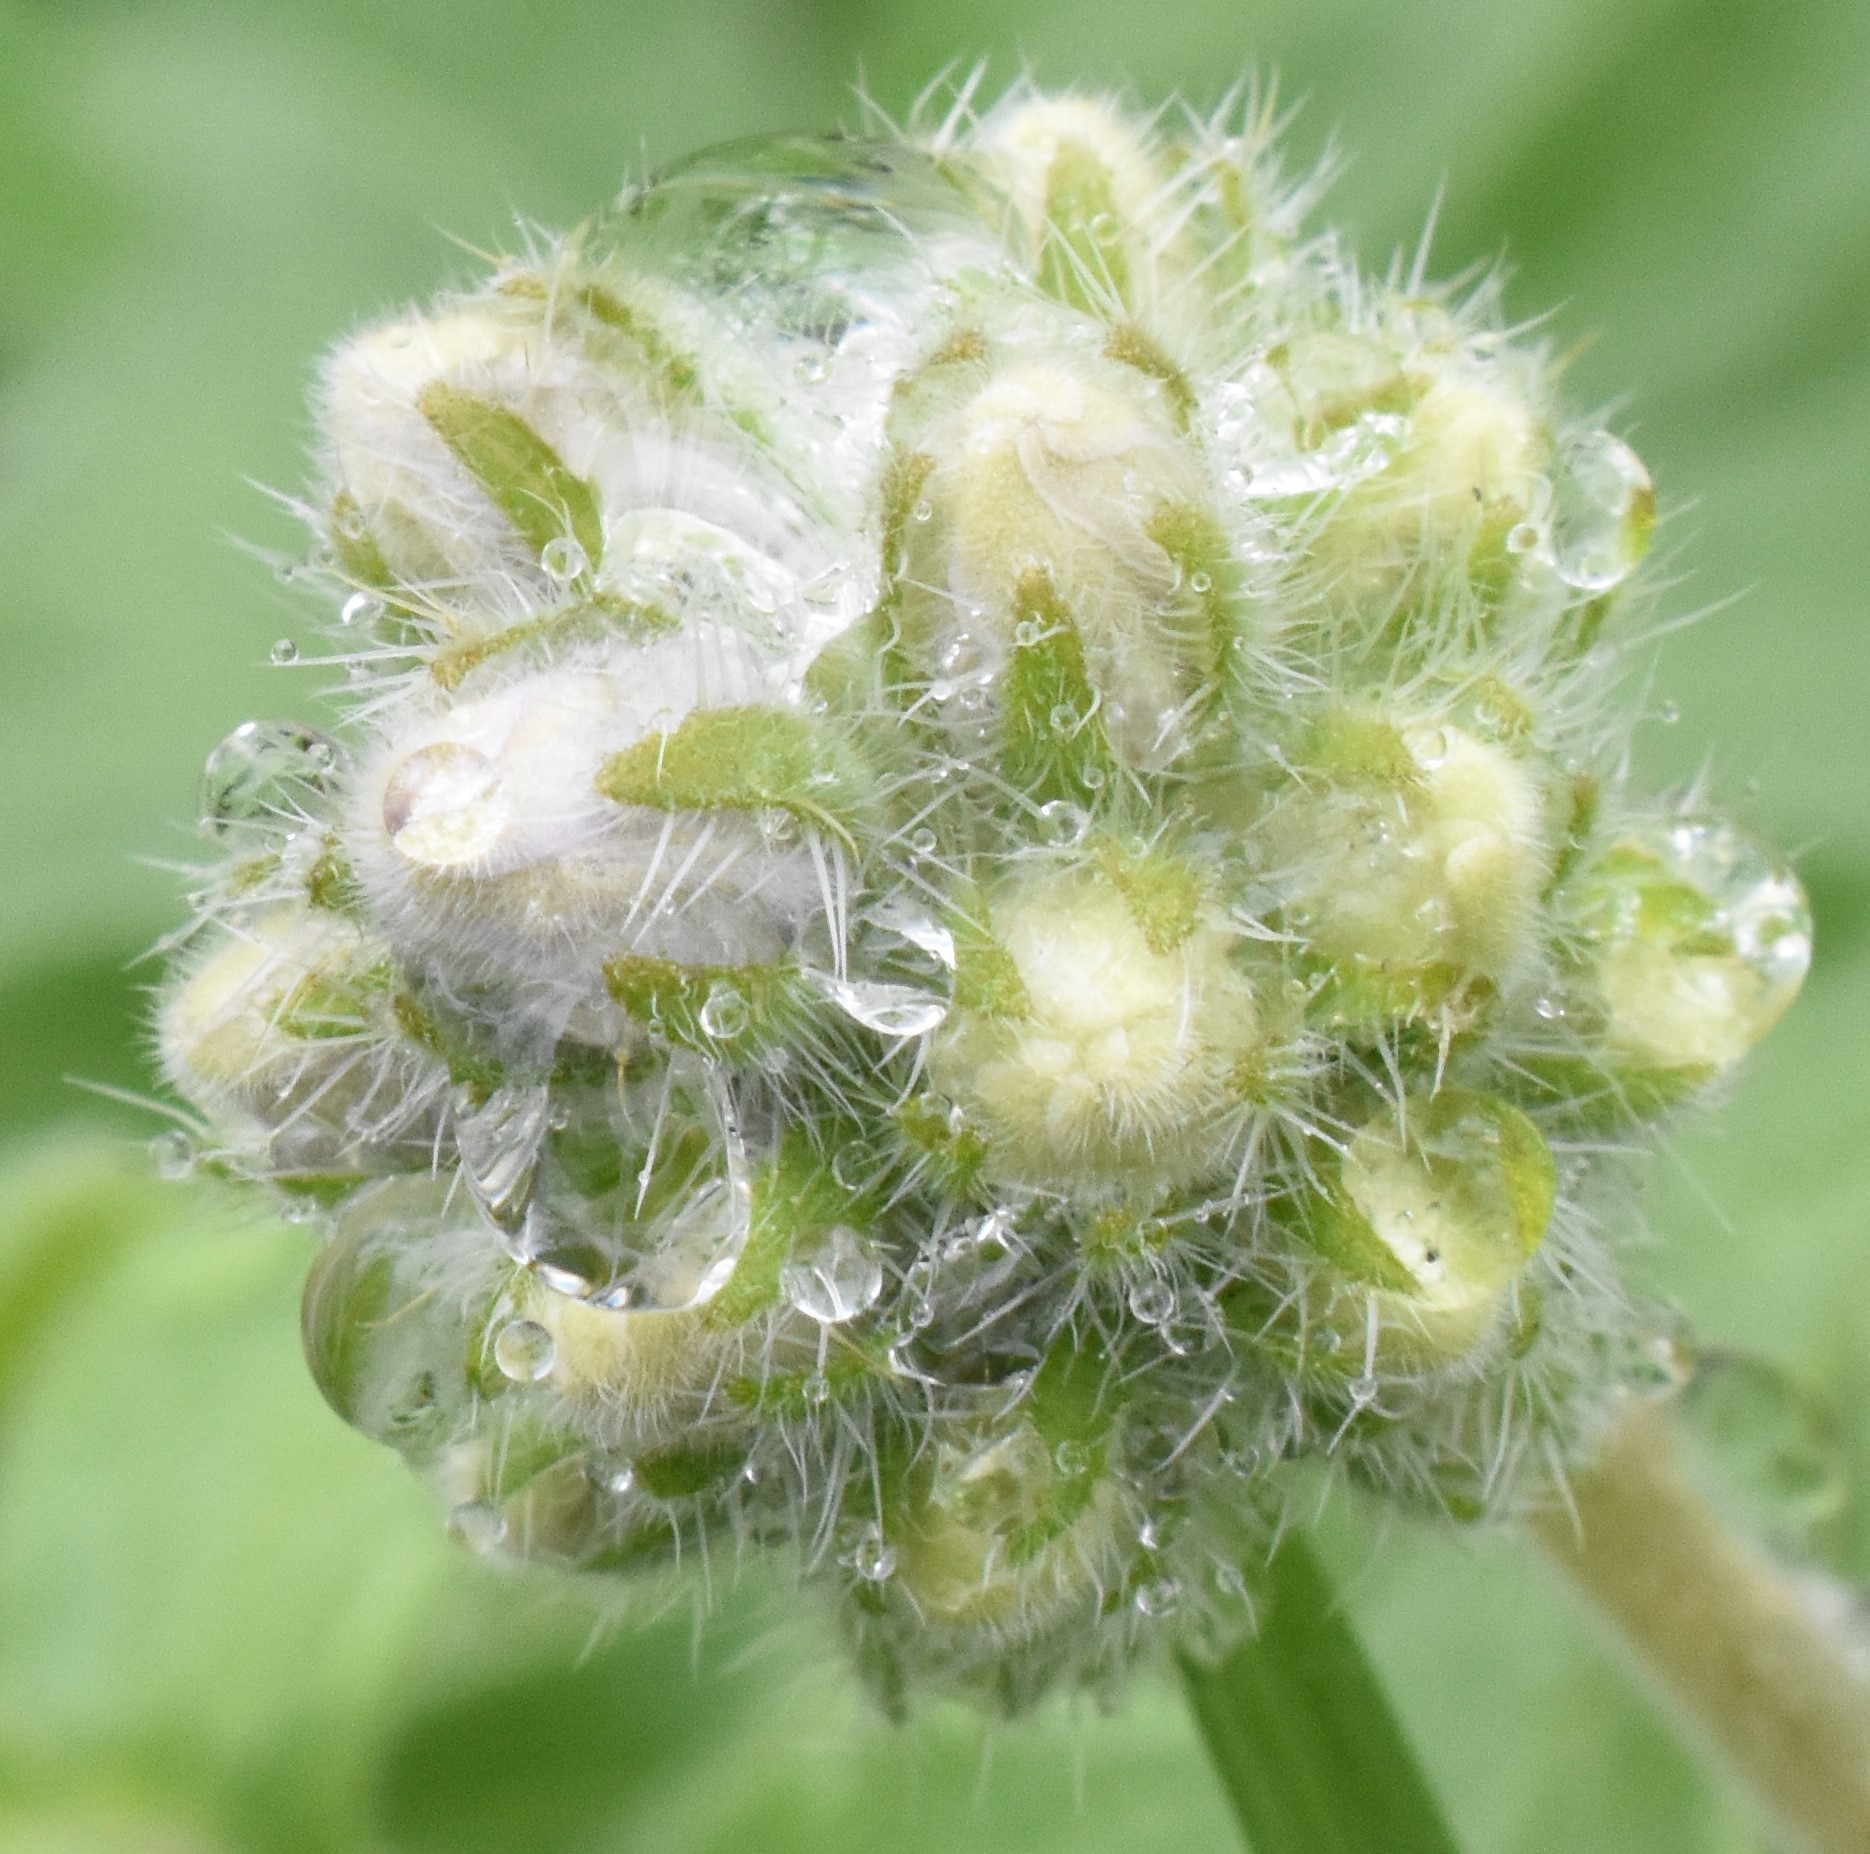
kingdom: Plantae
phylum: Tracheophyta
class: Magnoliopsida
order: Boraginales
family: Hydrophyllaceae
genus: Hydrophyllum
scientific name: Hydrophyllum occidentale
